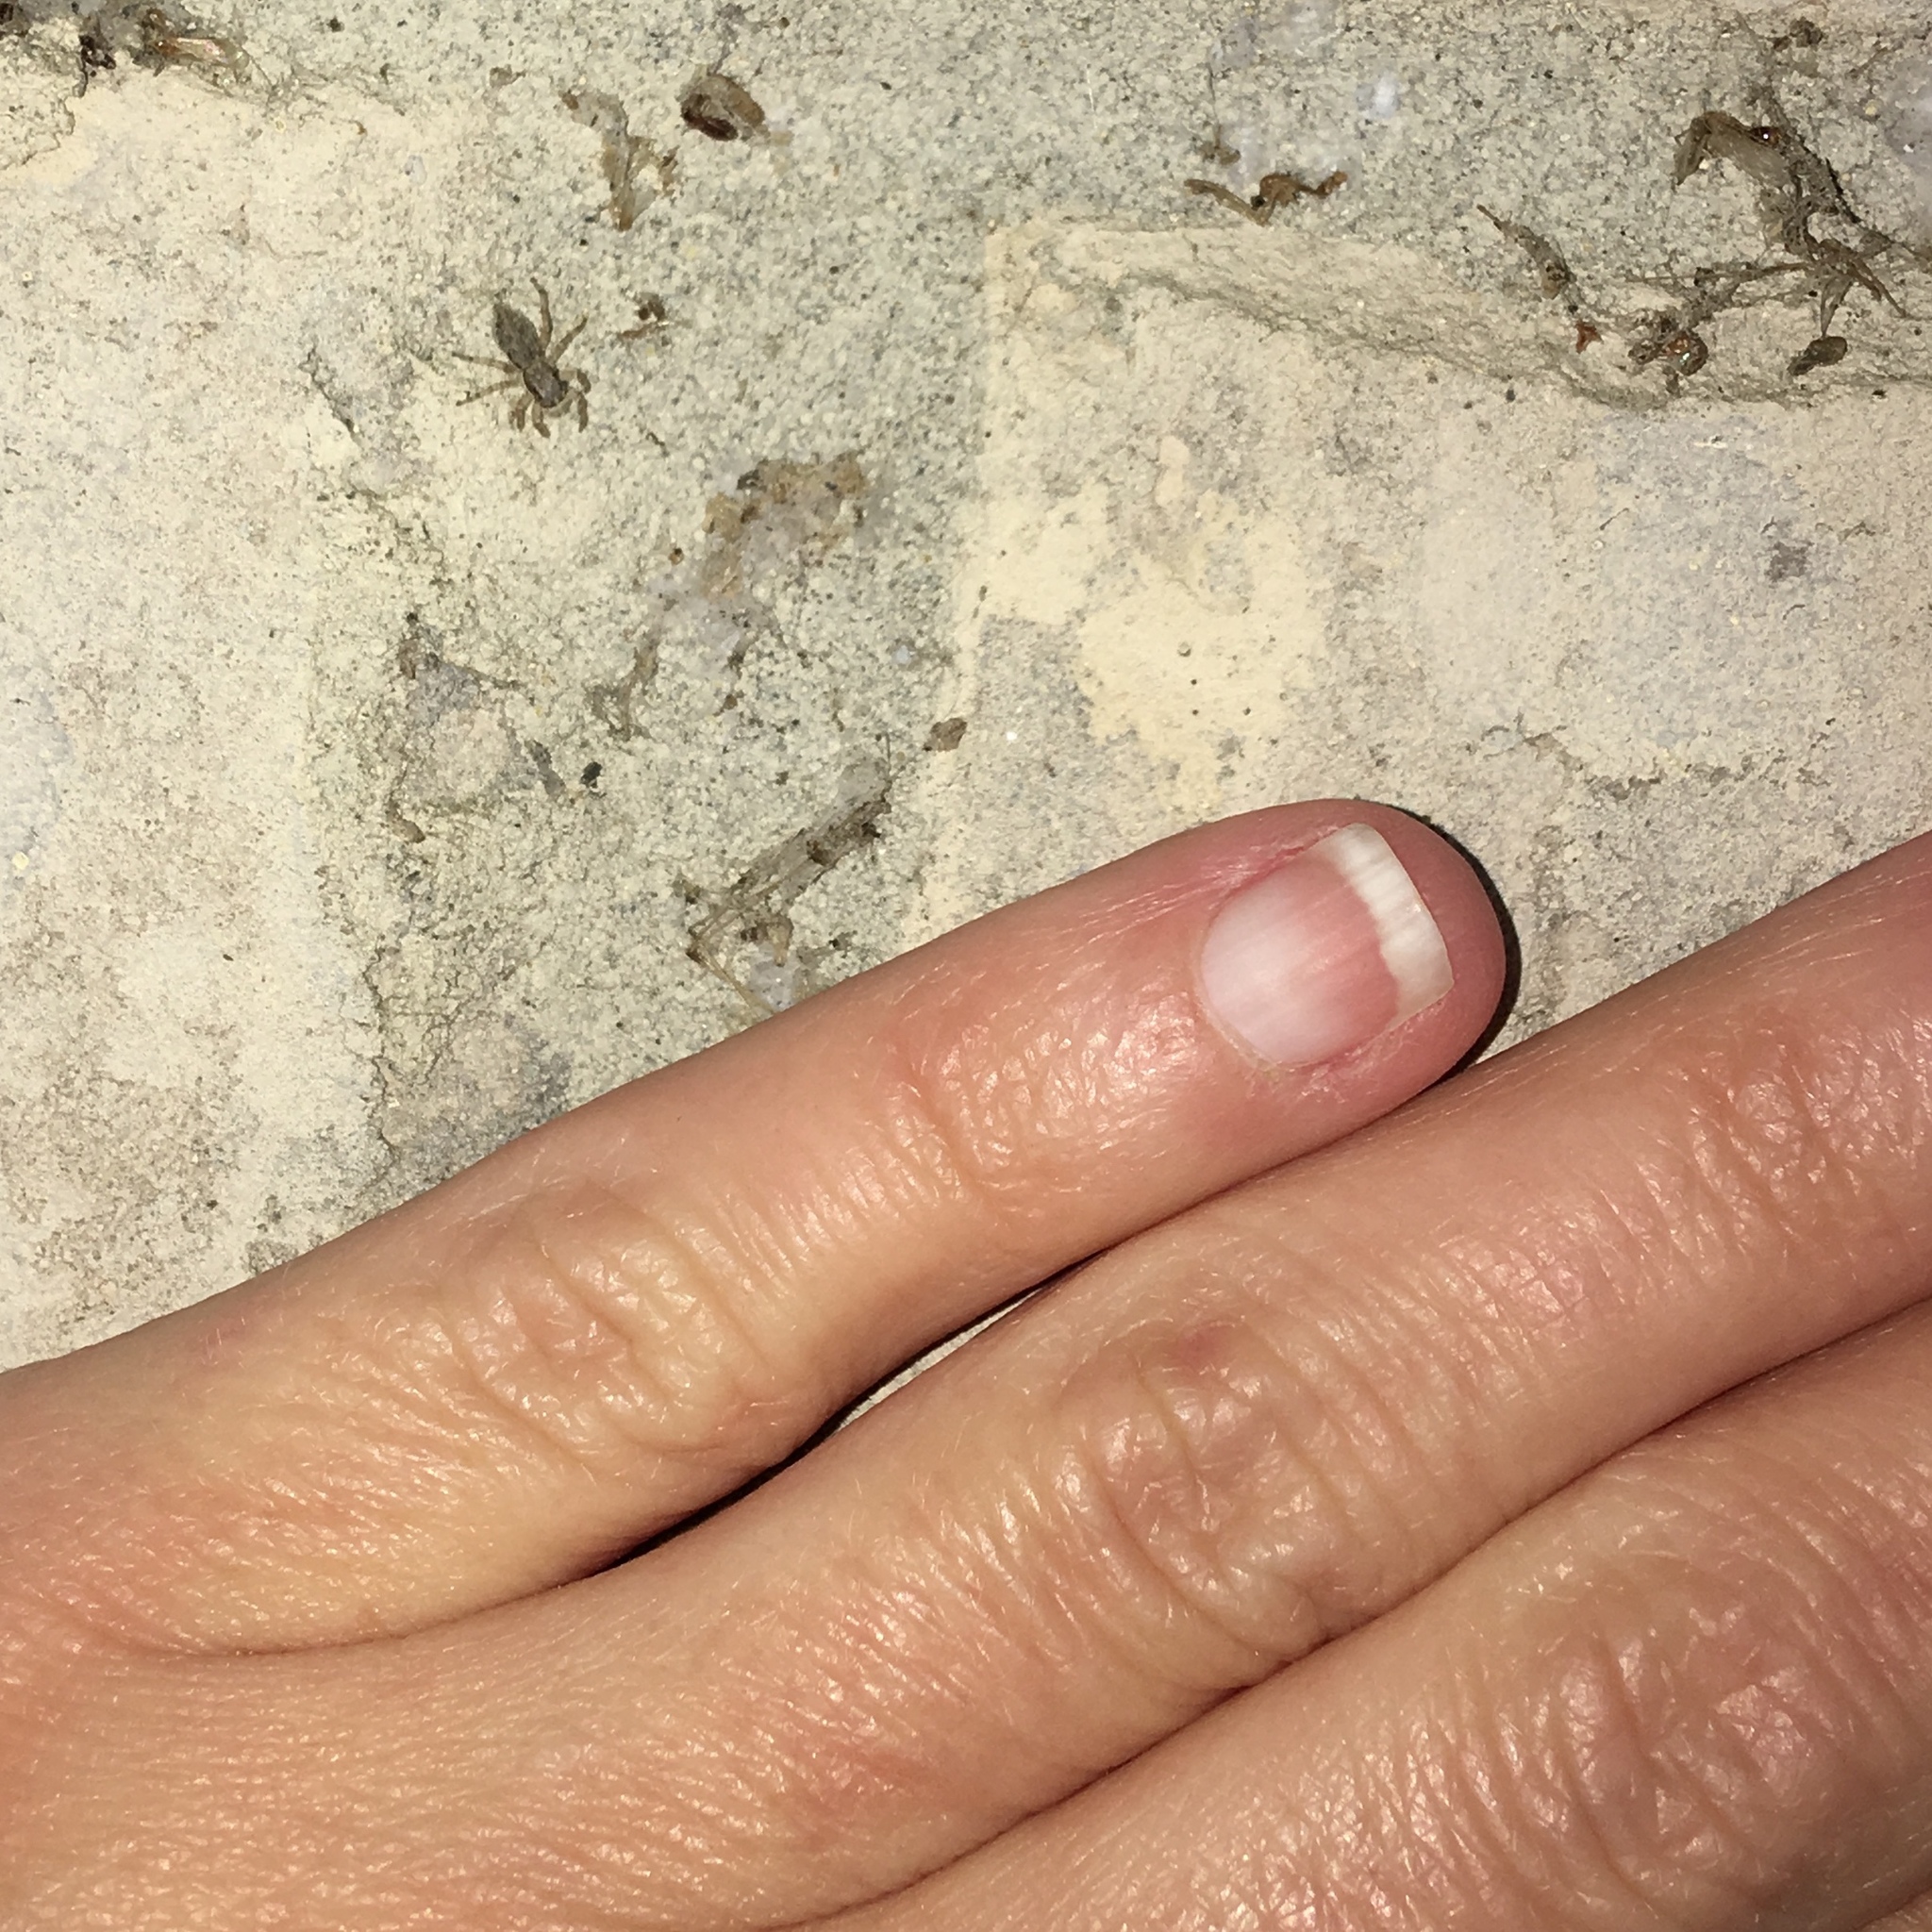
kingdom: Animalia
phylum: Arthropoda
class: Arachnida
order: Araneae
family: Salticidae
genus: Menemerus
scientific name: Menemerus bivittatus
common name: Gray wall jumper
